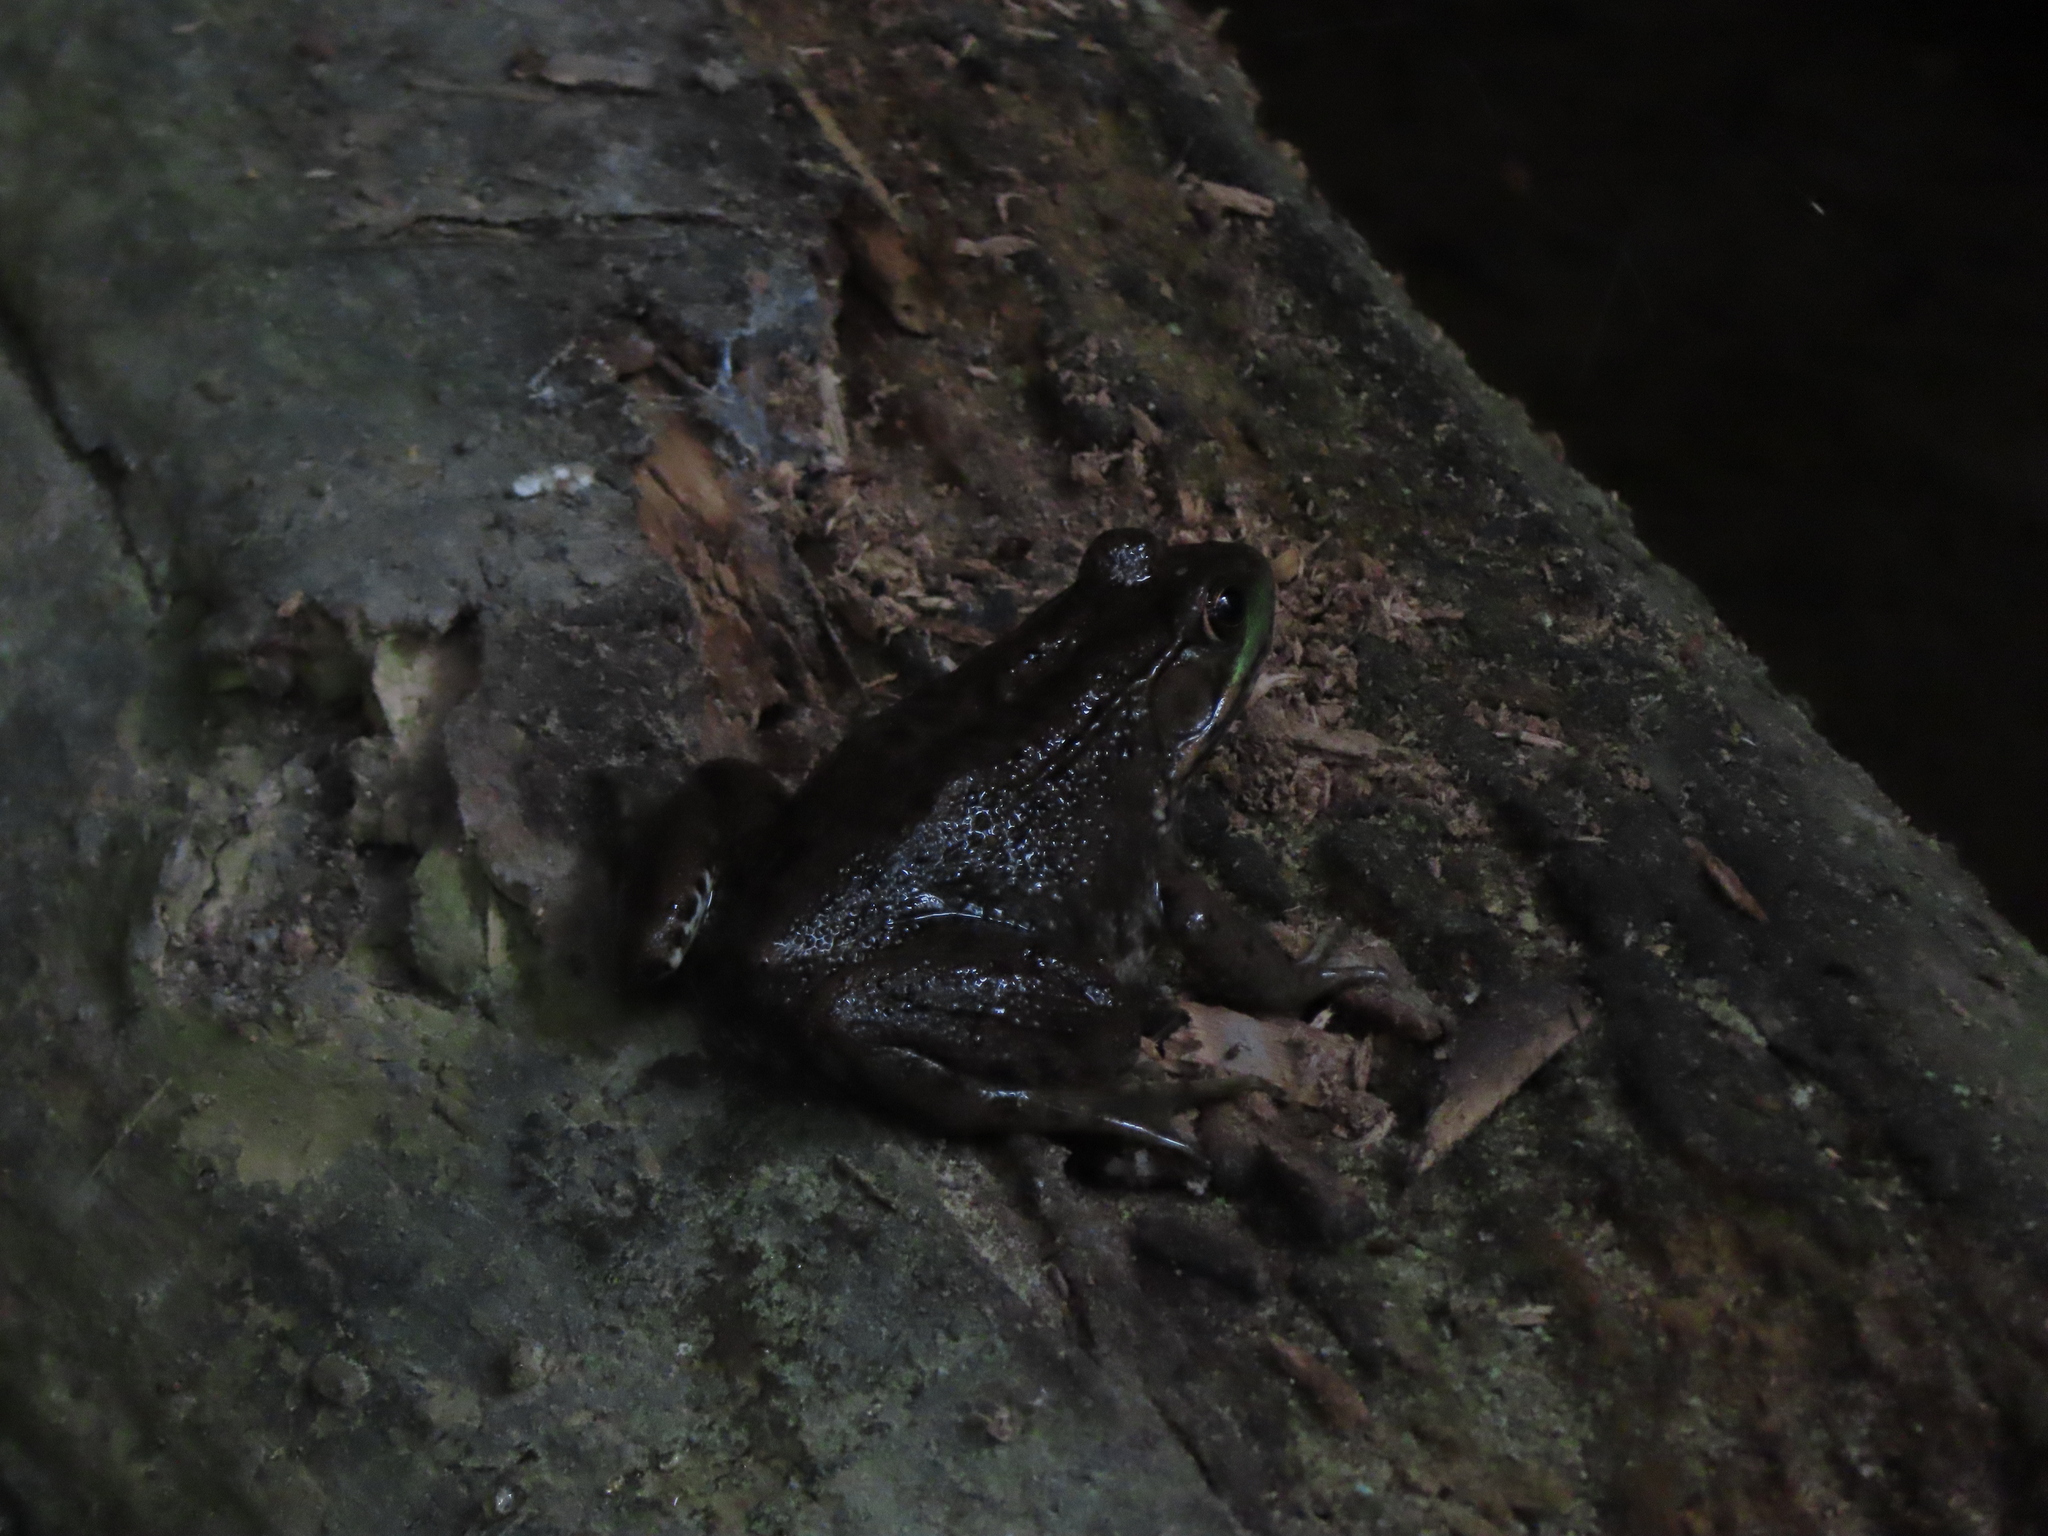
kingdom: Animalia
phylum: Chordata
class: Amphibia
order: Anura
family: Ranidae
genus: Lithobates
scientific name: Lithobates clamitans
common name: Green frog
